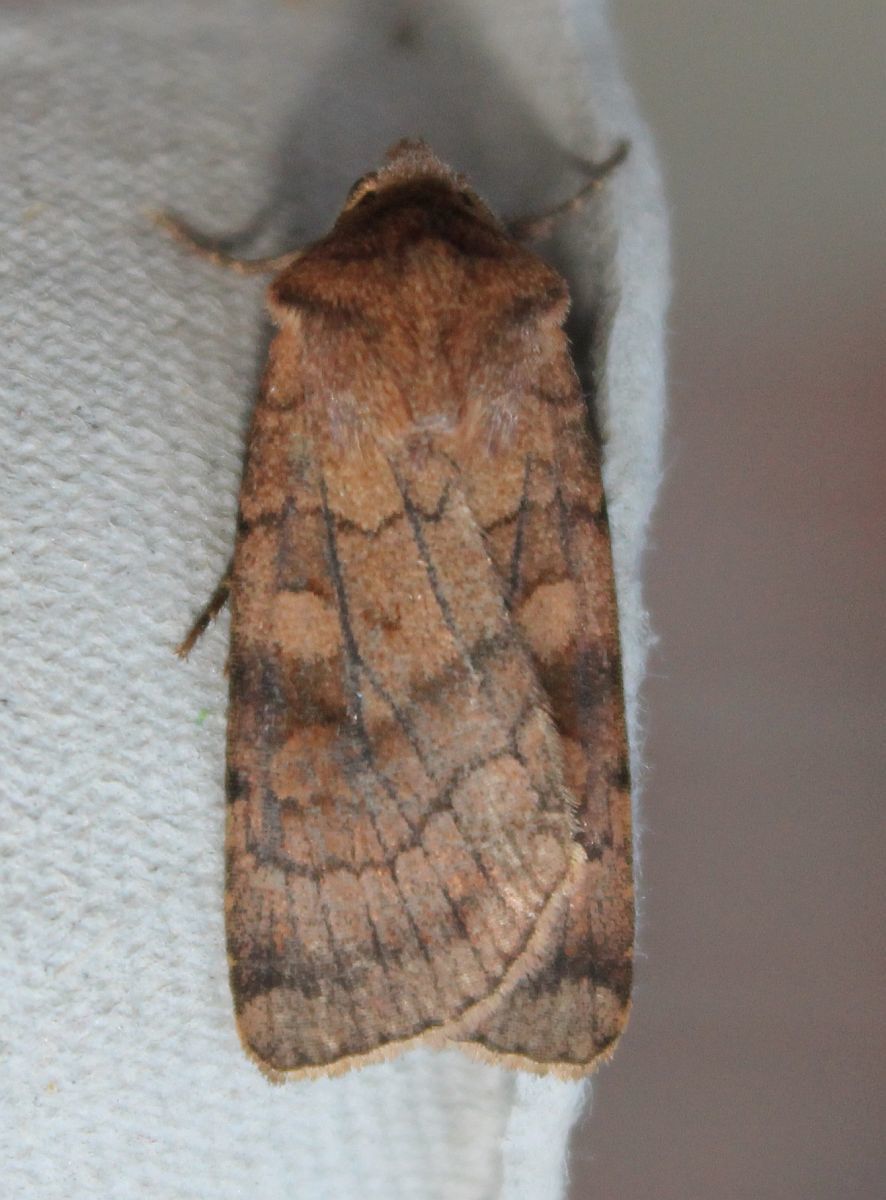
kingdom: Animalia
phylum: Arthropoda
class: Insecta
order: Lepidoptera
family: Noctuidae
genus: Xestia
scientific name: Xestia sexstrigata
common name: Six-striped rustic
